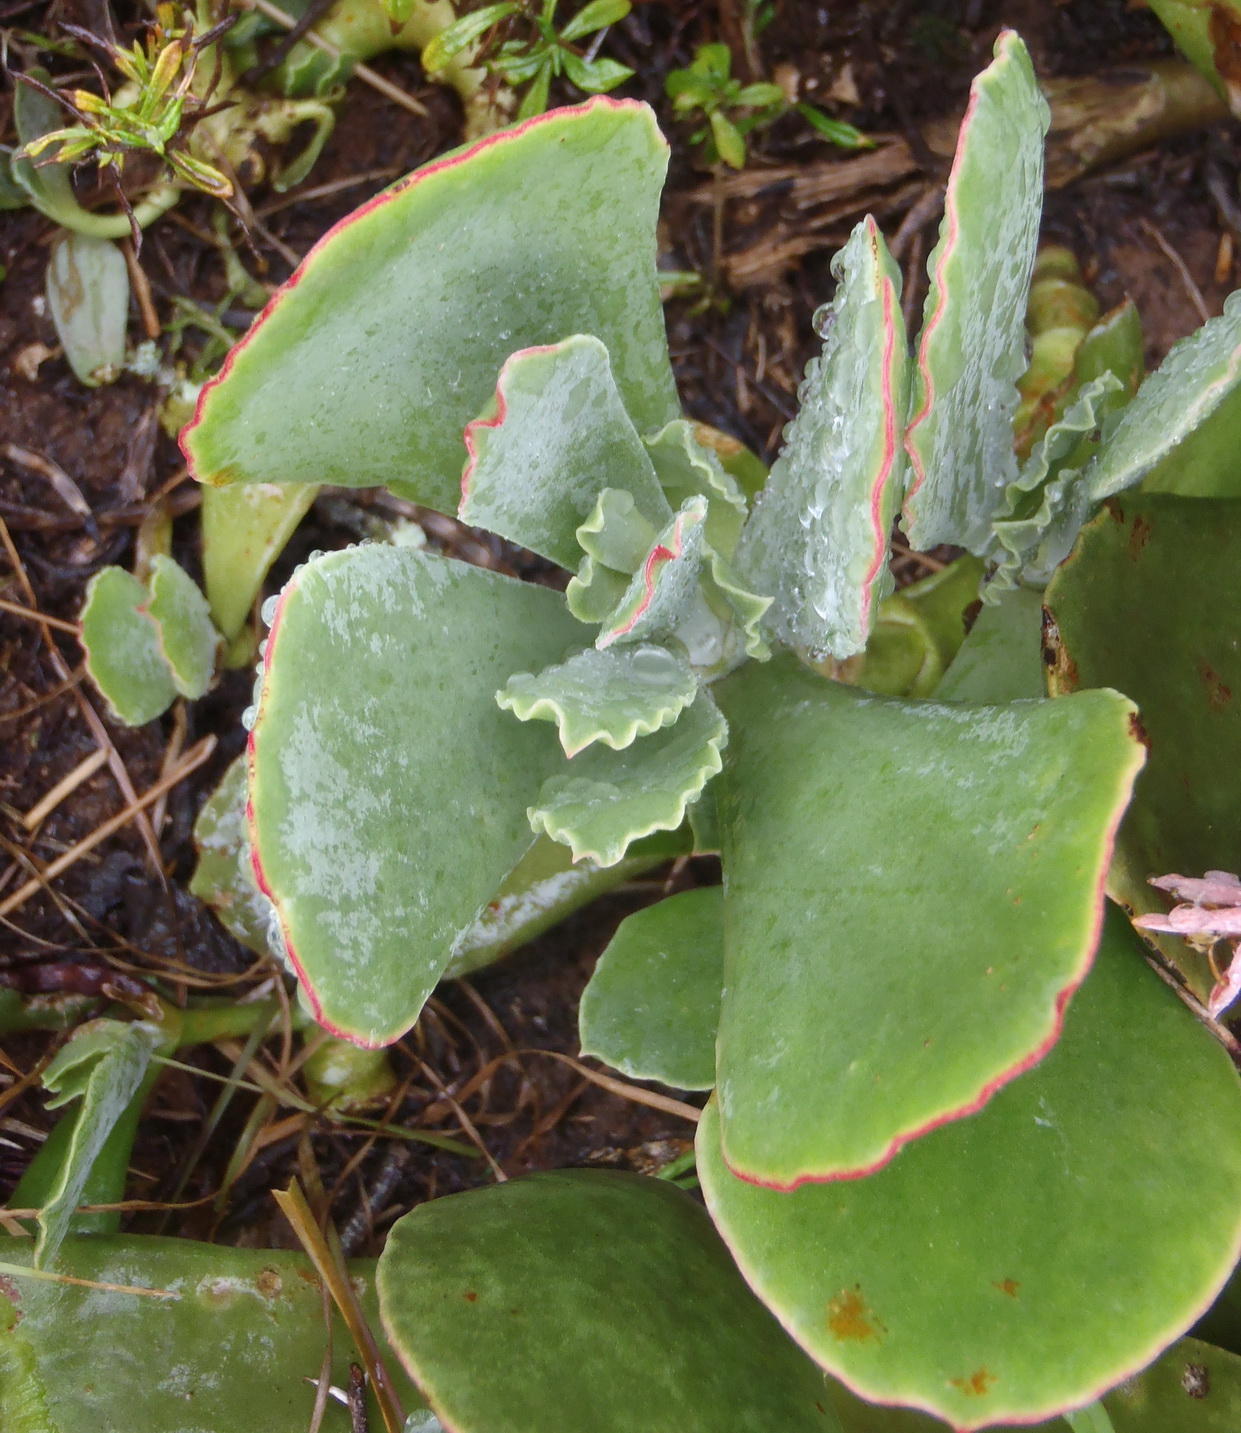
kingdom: Plantae
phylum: Tracheophyta
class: Magnoliopsida
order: Saxifragales
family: Crassulaceae
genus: Cotyledon
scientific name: Cotyledon orbiculata
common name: Pig's ear
